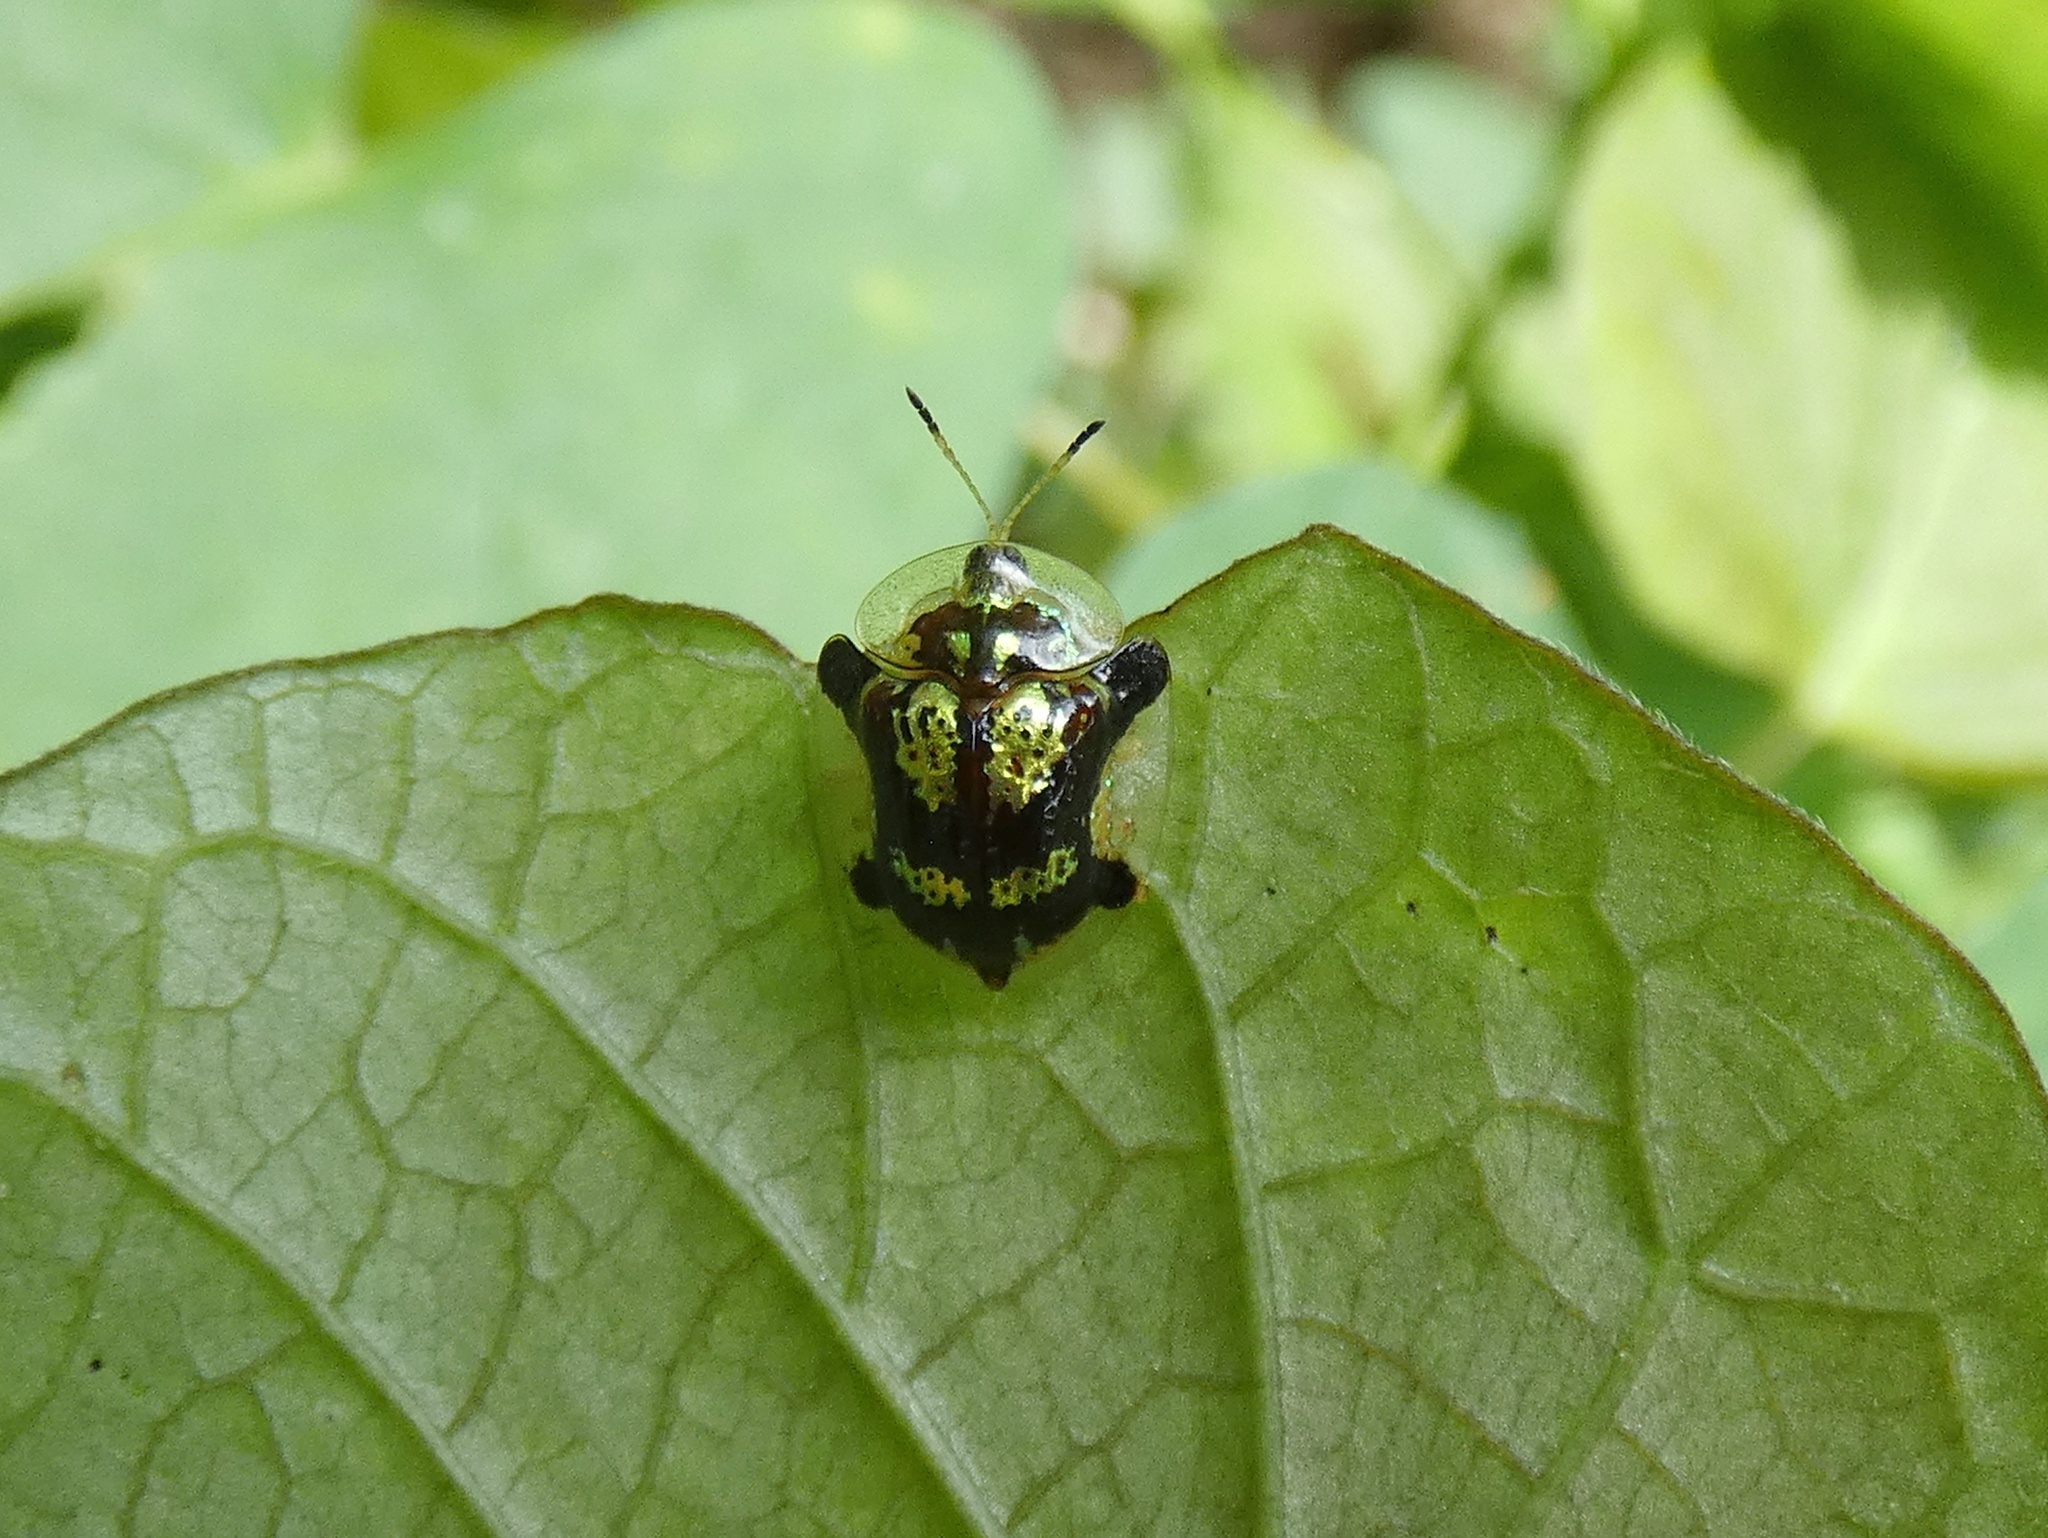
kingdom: Animalia
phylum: Arthropoda
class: Insecta
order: Coleoptera
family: Chrysomelidae
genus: Deloyala
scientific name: Deloyala insubida
